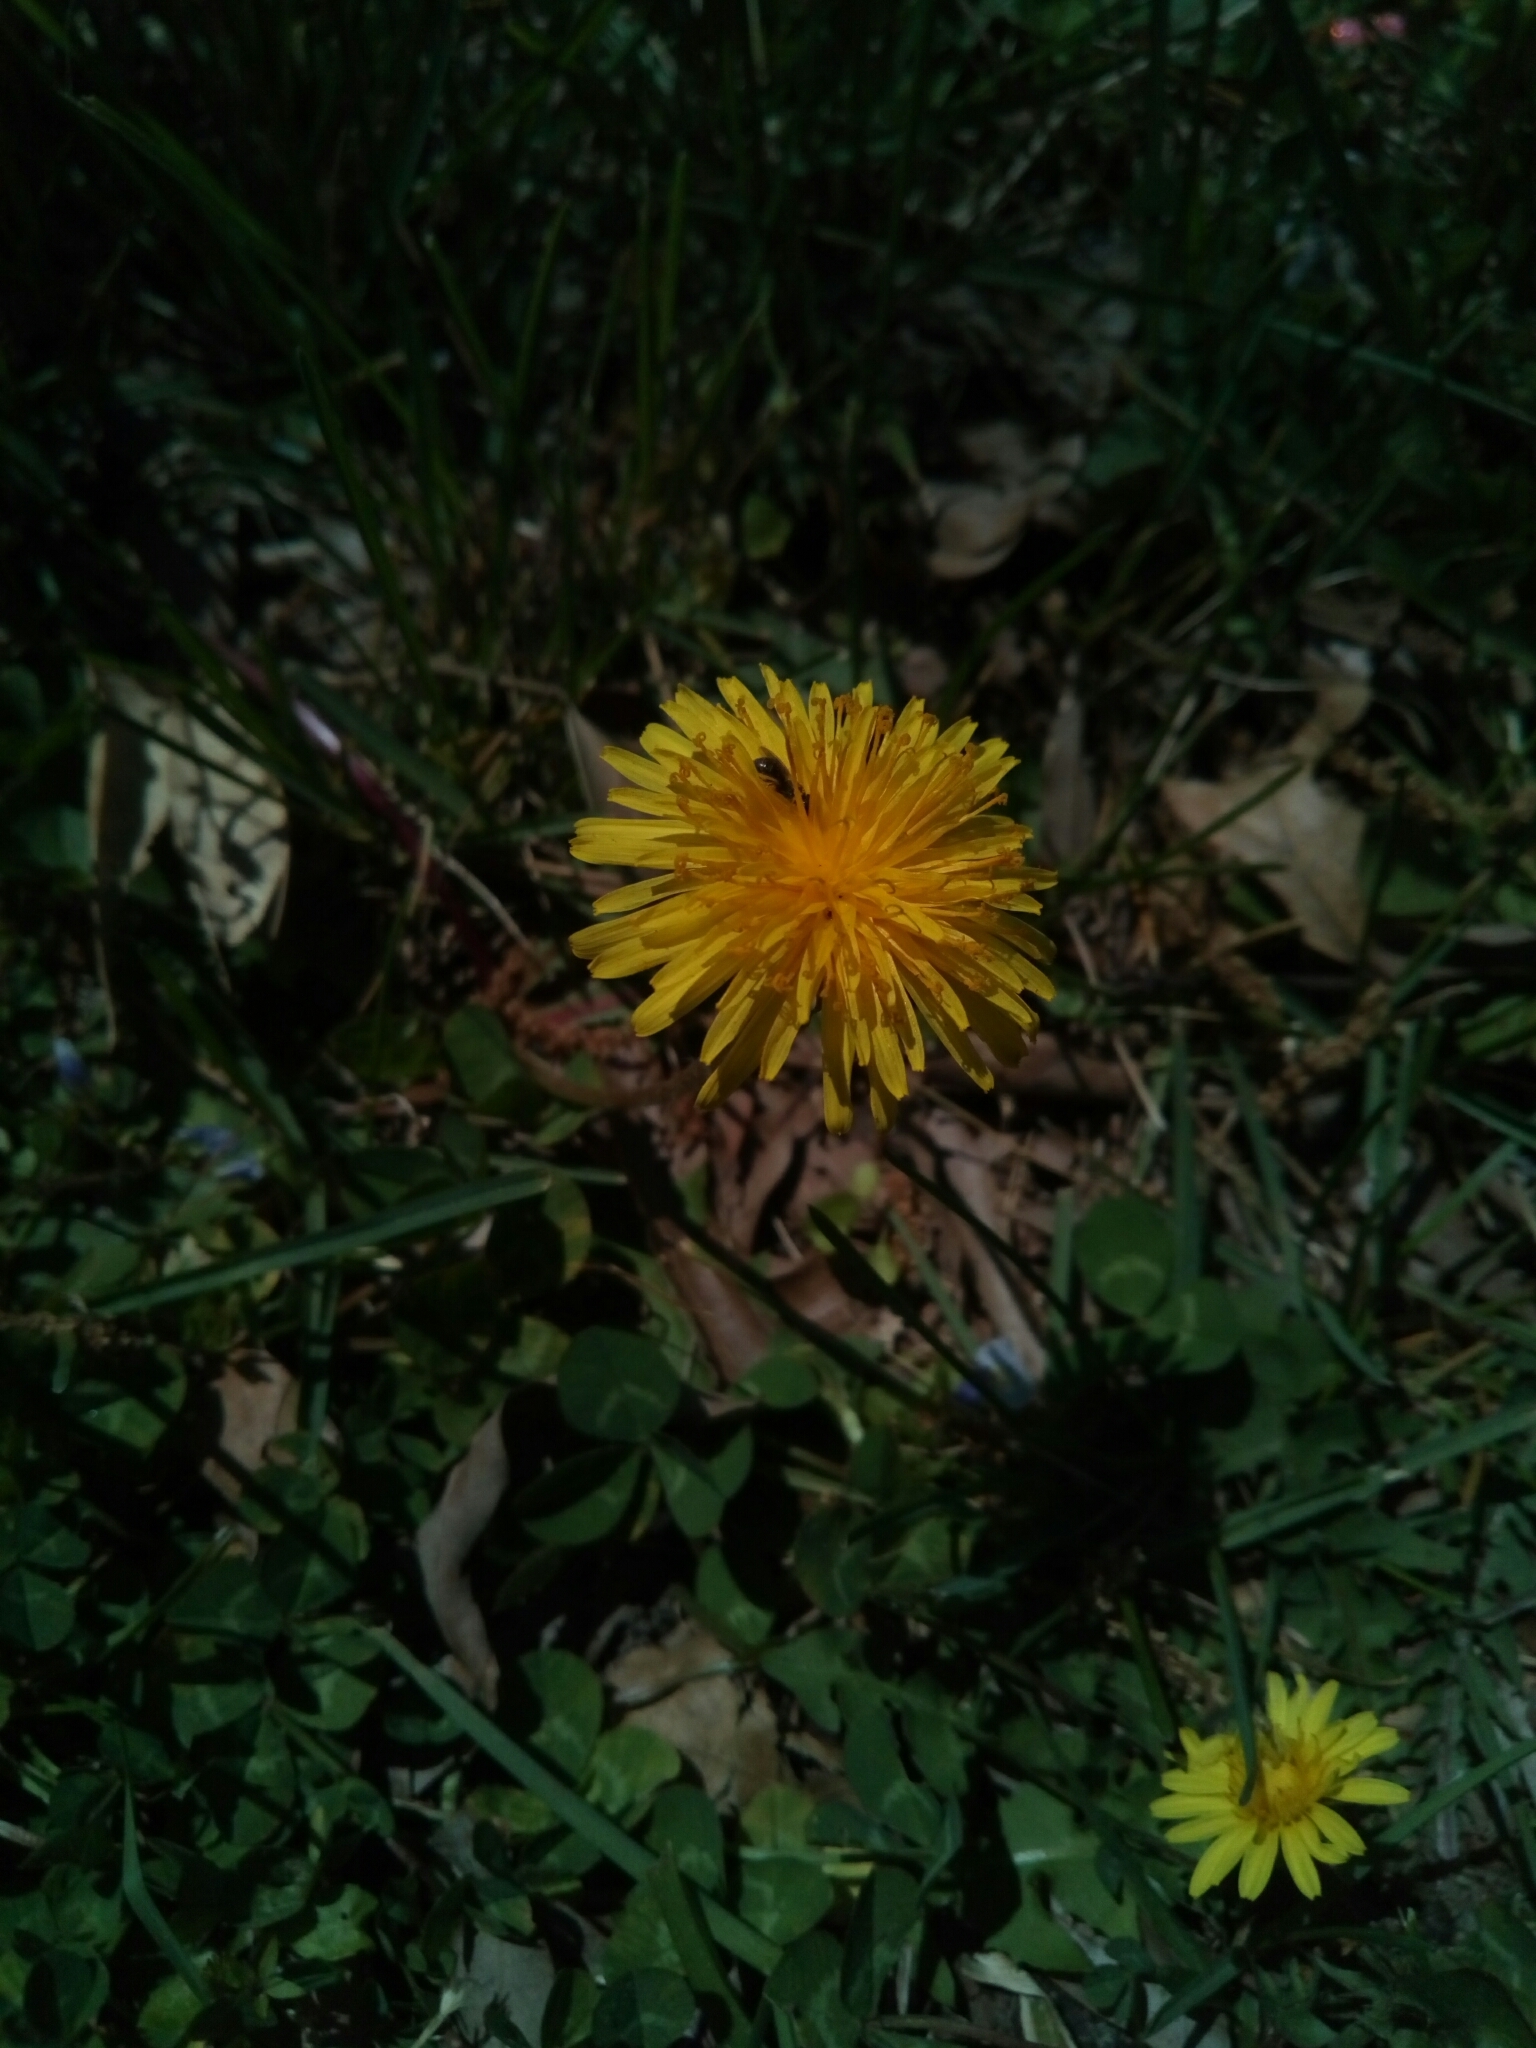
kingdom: Plantae
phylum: Tracheophyta
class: Magnoliopsida
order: Asterales
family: Asteraceae
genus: Taraxacum
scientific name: Taraxacum officinale
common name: Common dandelion
